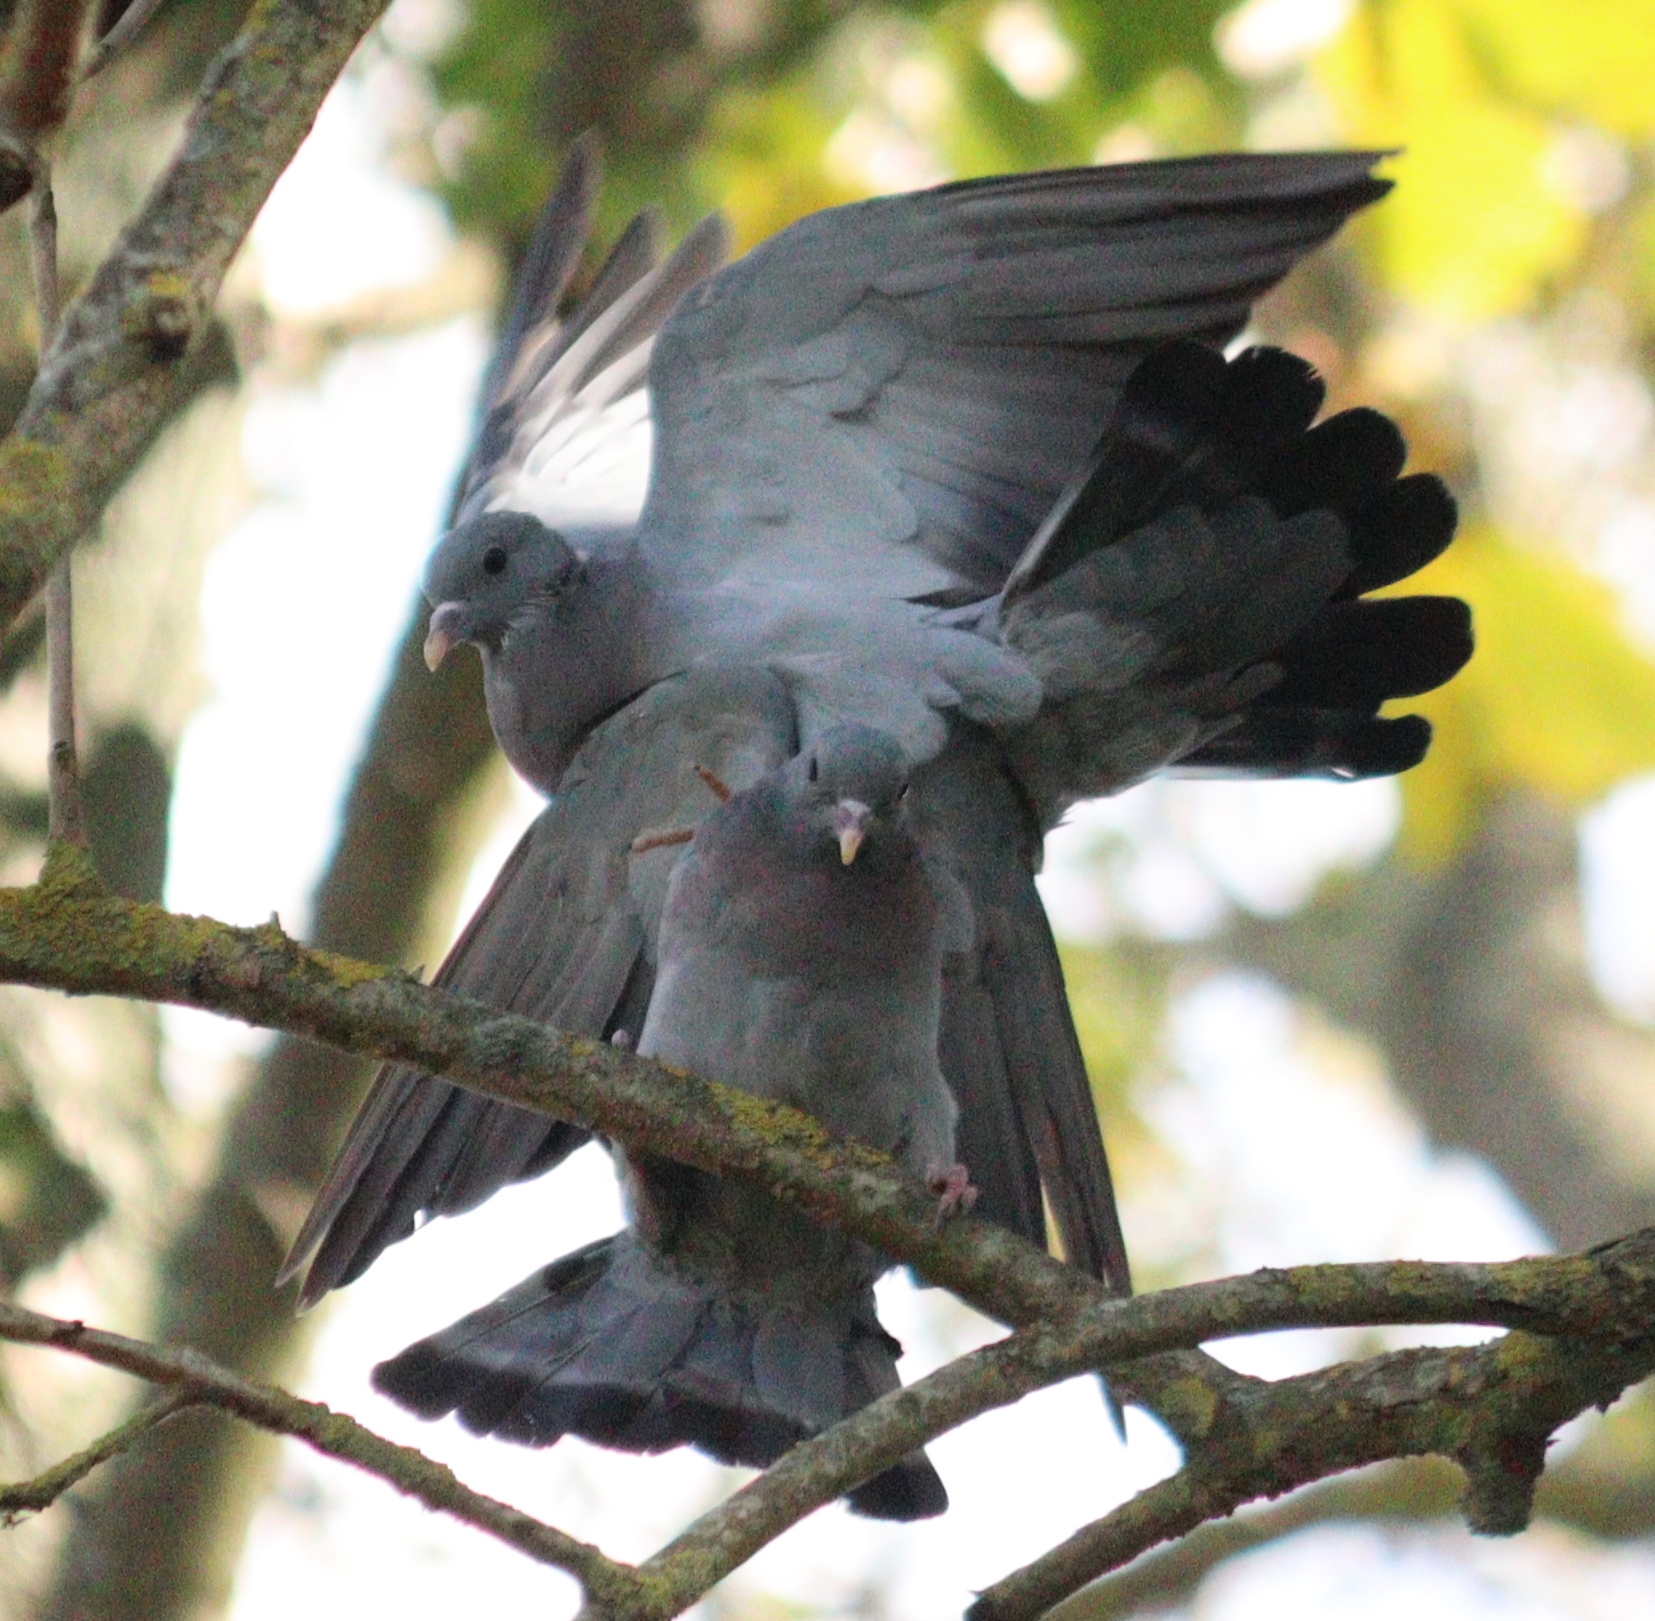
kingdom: Animalia
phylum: Chordata
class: Aves
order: Columbiformes
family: Columbidae
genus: Columba
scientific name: Columba oenas
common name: Stock dove
